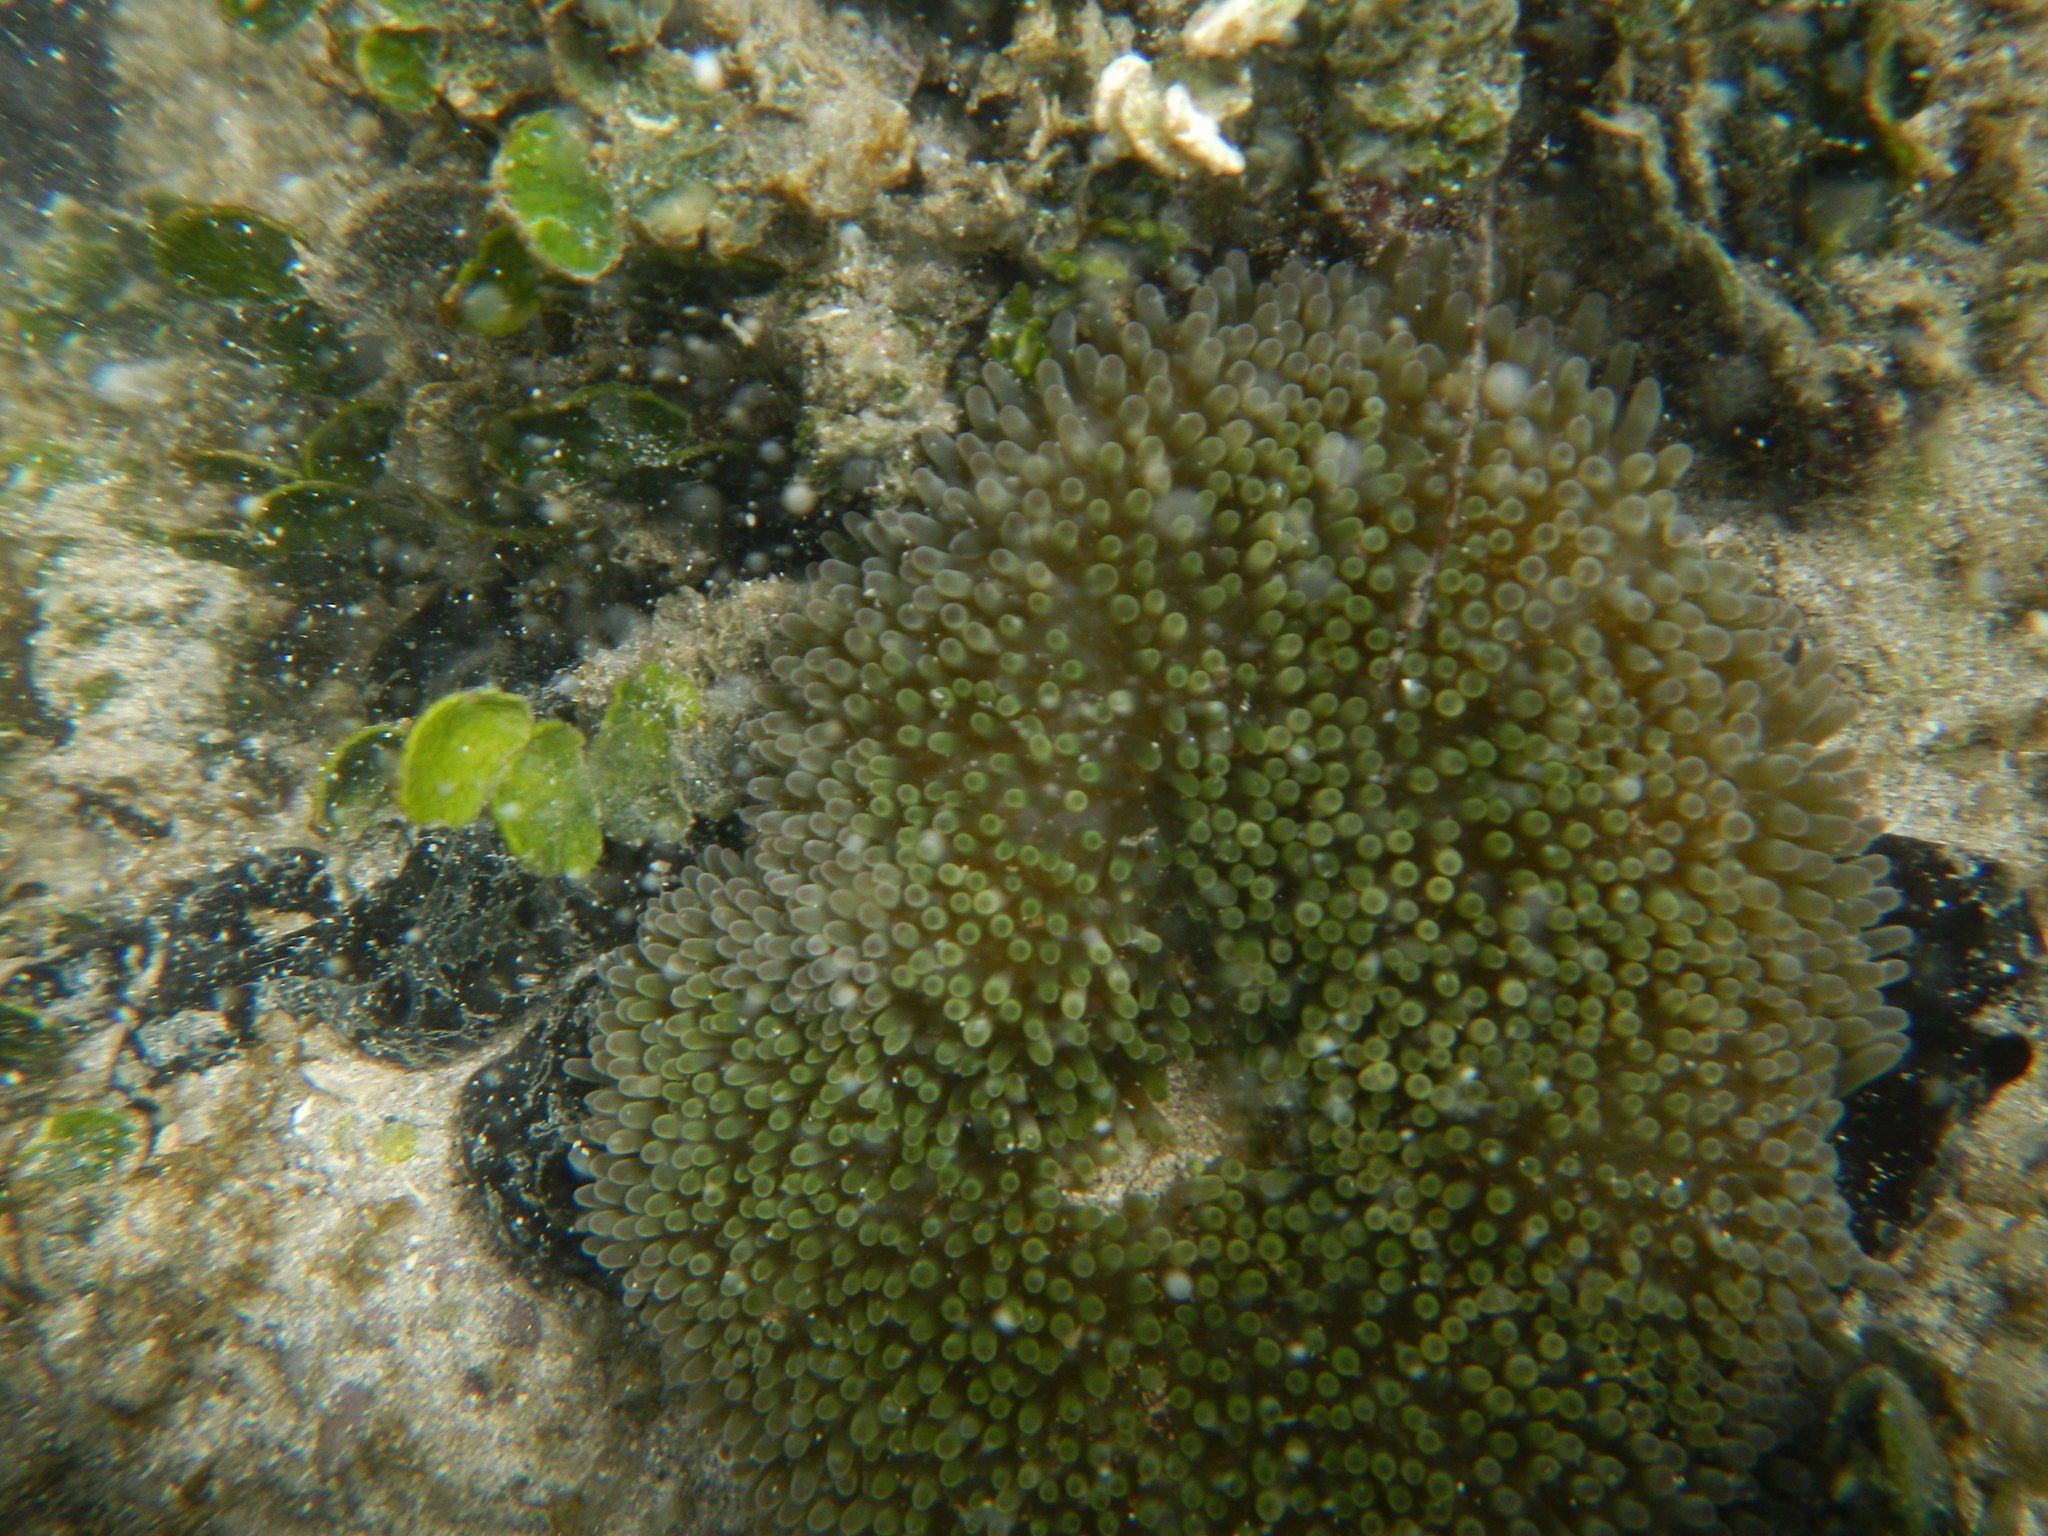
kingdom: Animalia
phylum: Cnidaria
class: Anthozoa
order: Actiniaria
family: Stichodactylidae
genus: Stichodactyla
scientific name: Stichodactyla helianthus
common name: Sun anemone
